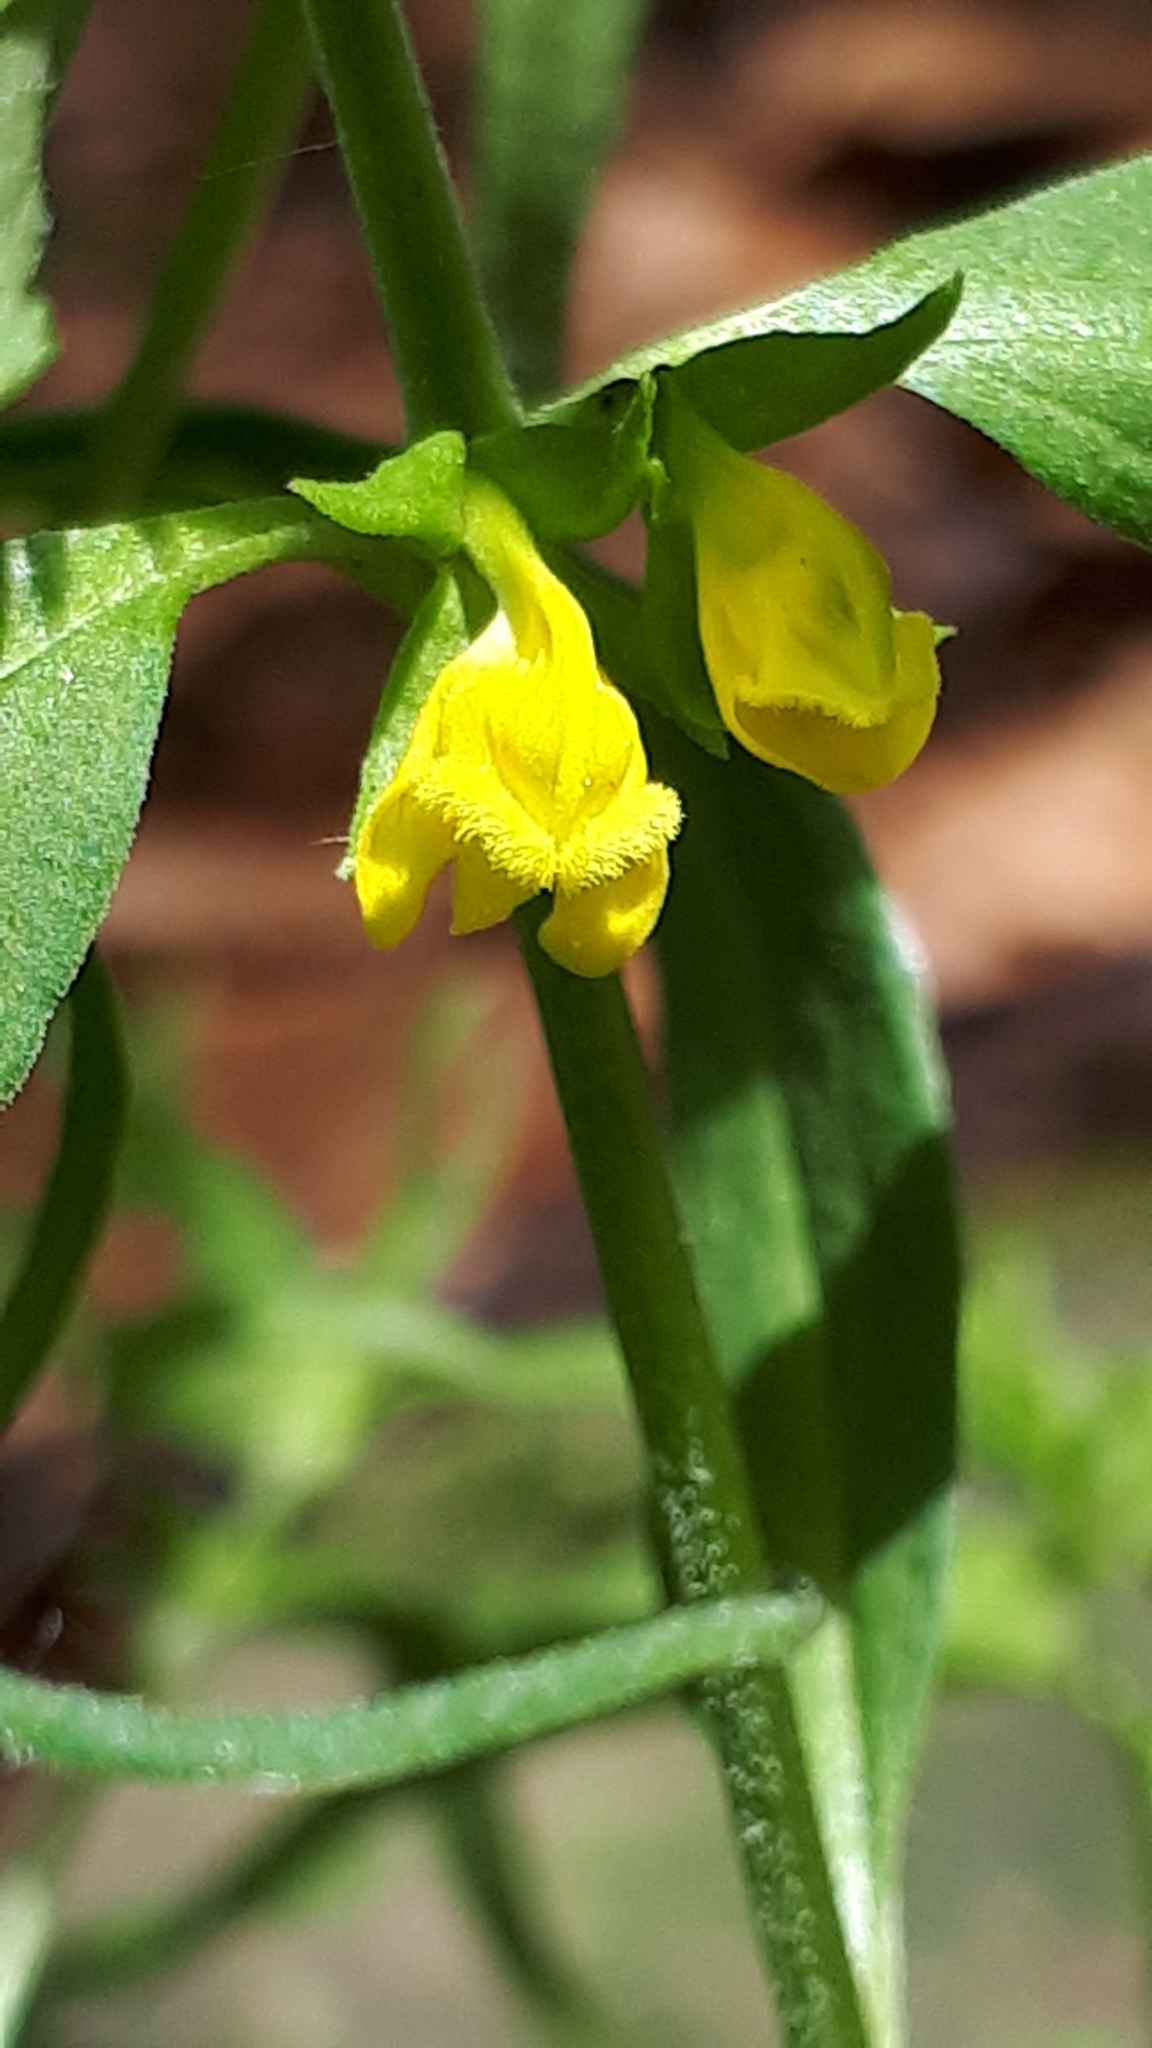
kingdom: Plantae
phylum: Tracheophyta
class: Magnoliopsida
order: Lamiales
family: Orobanchaceae
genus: Melampyrum
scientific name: Melampyrum sylvaticum
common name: Small cow-wheat
